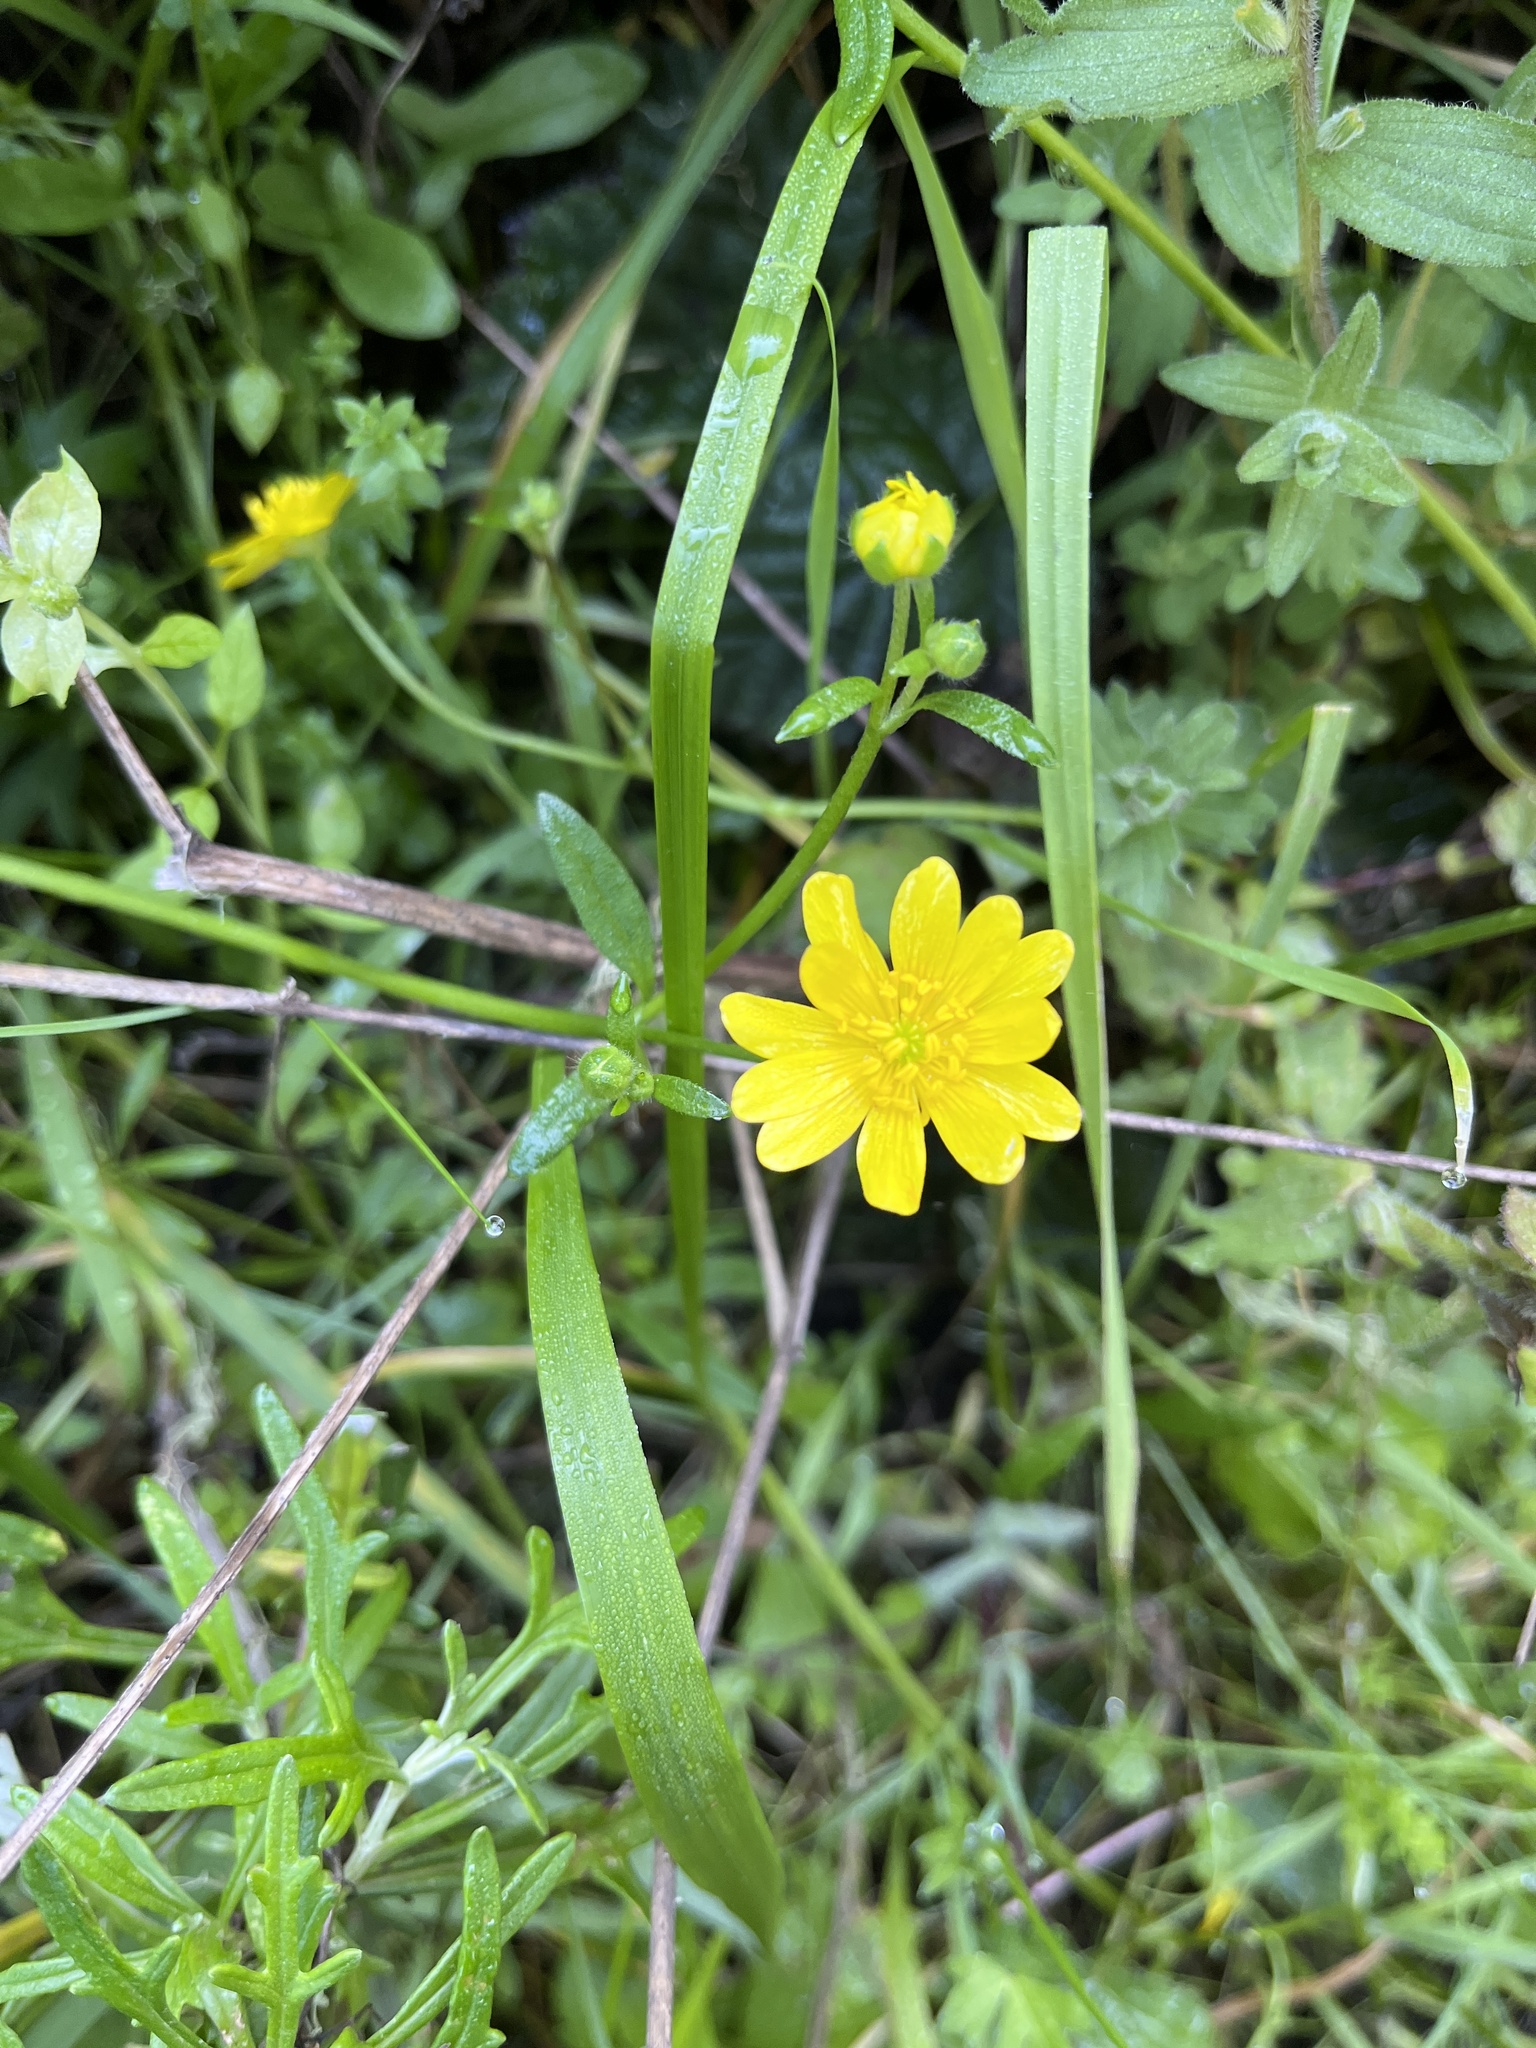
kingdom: Plantae
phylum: Tracheophyta
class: Magnoliopsida
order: Ranunculales
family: Ranunculaceae
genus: Ranunculus
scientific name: Ranunculus californicus
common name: California buttercup
